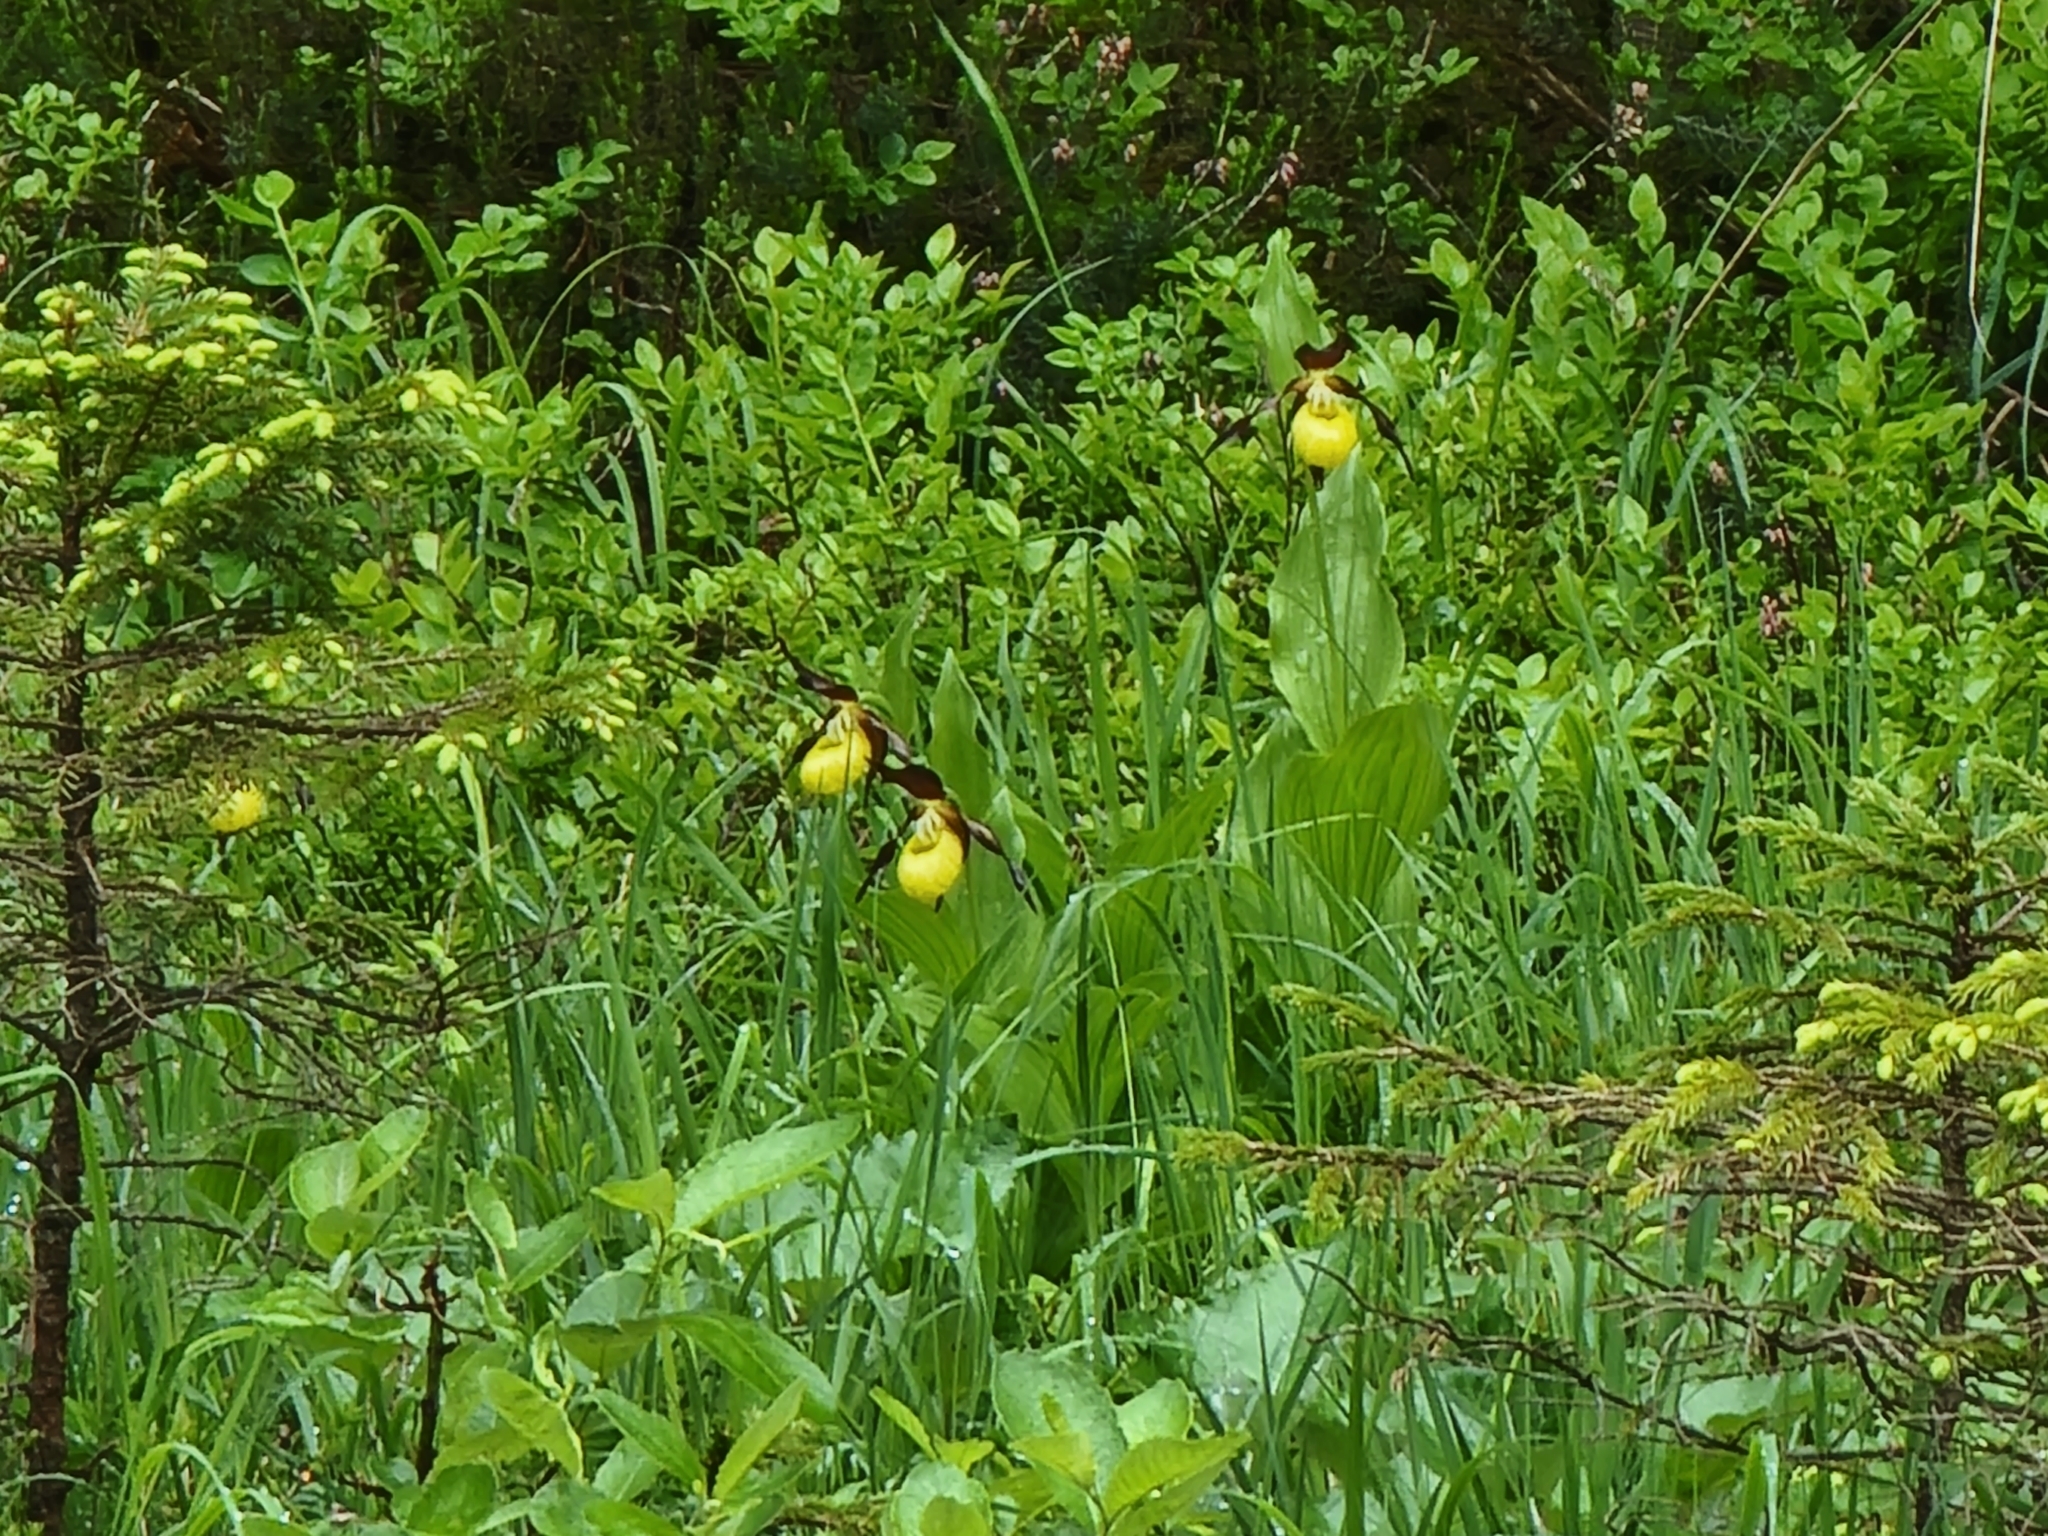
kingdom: Plantae
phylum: Tracheophyta
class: Liliopsida
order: Asparagales
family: Orchidaceae
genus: Cypripedium
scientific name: Cypripedium calceolus
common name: Lady's-slipper
